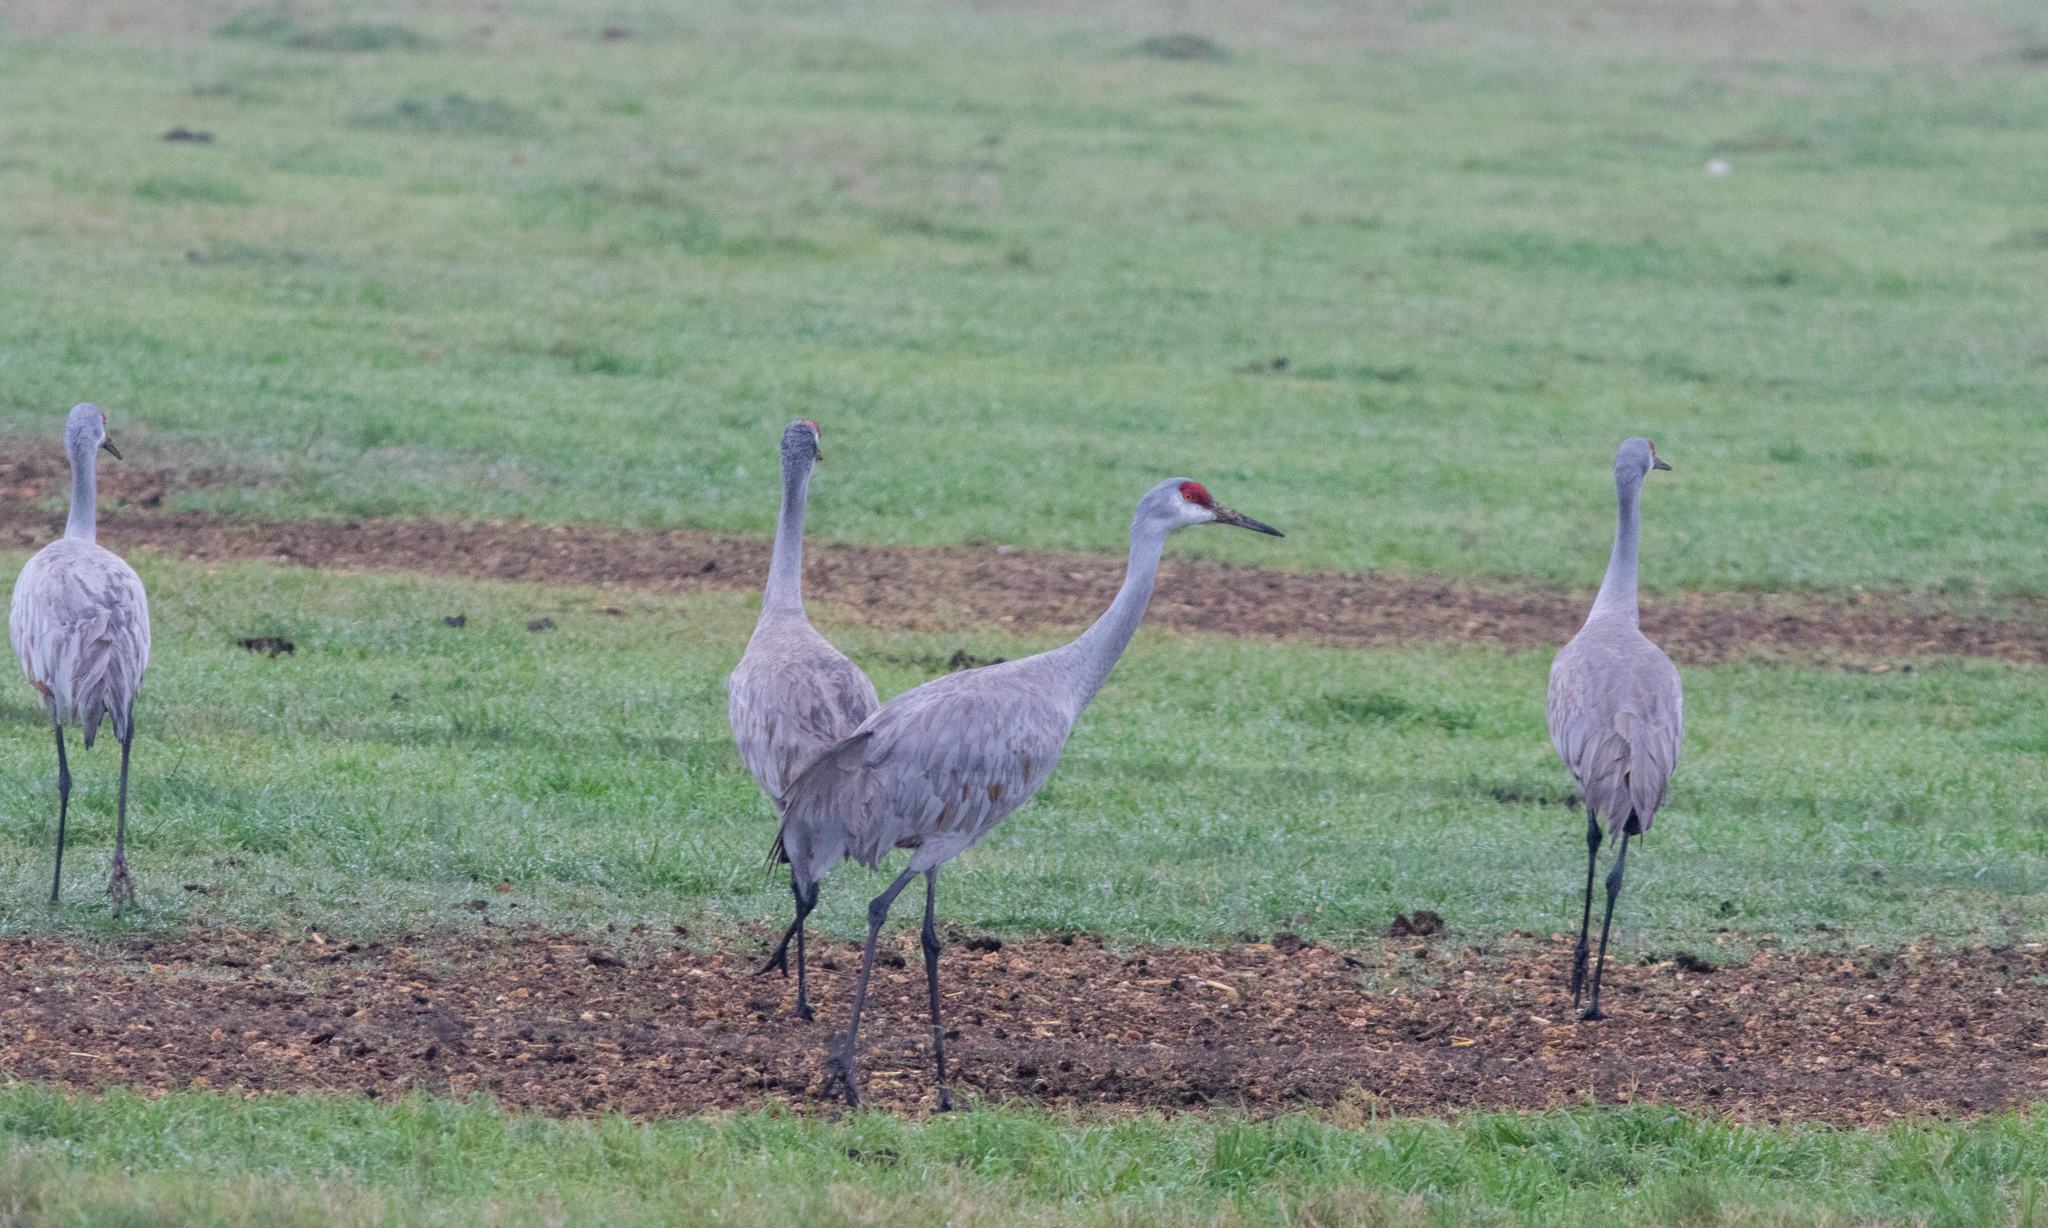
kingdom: Animalia
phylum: Chordata
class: Aves
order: Gruiformes
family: Gruidae
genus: Grus
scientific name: Grus canadensis
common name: Sandhill crane
